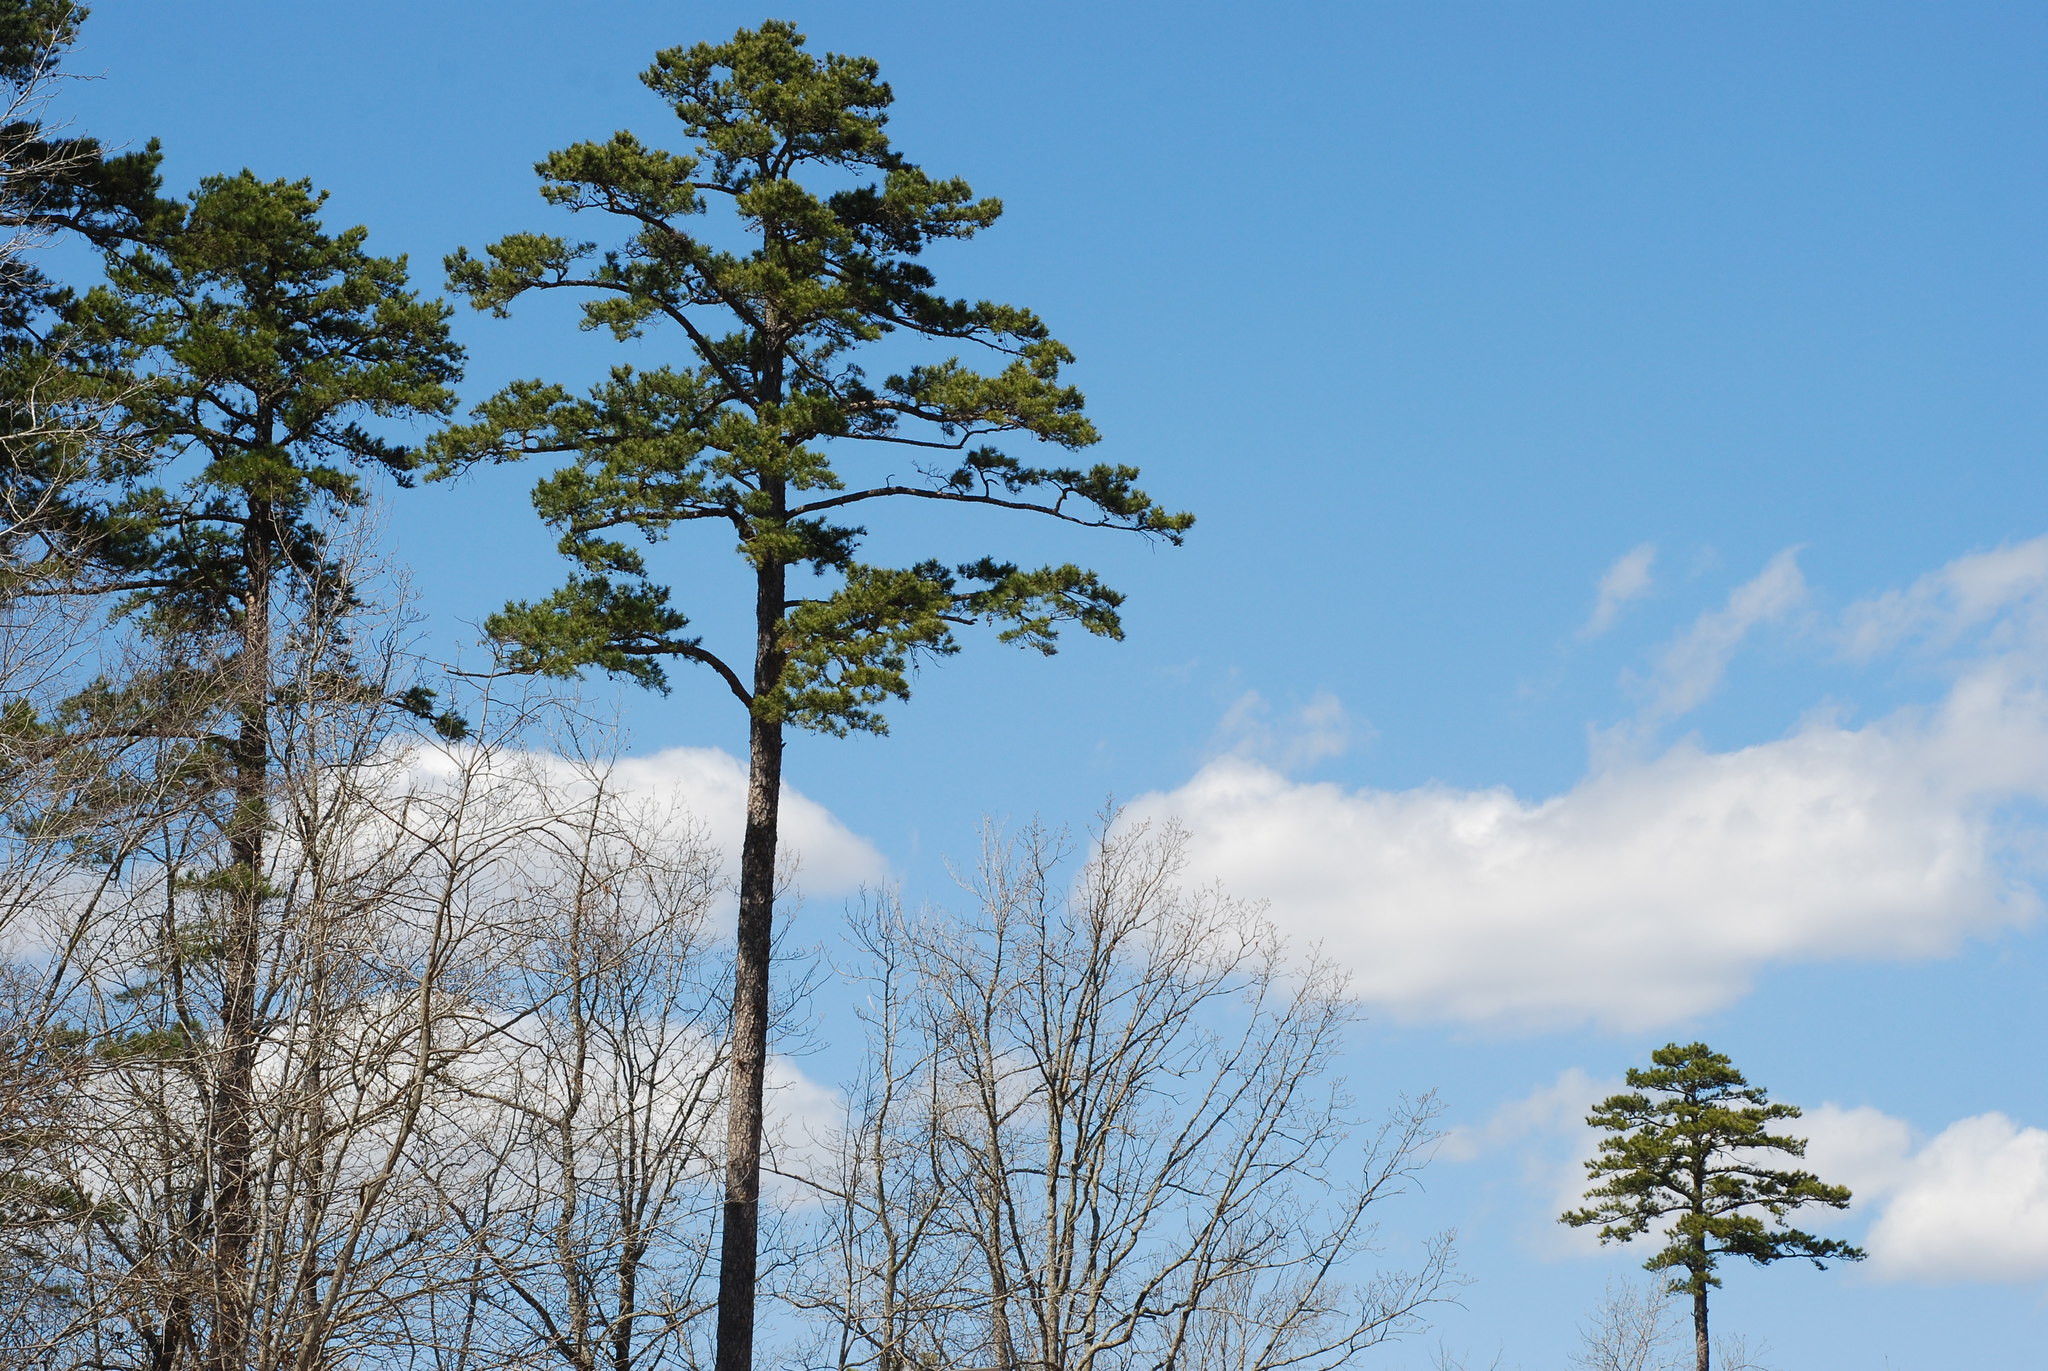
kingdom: Plantae
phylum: Tracheophyta
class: Pinopsida
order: Pinales
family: Pinaceae
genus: Pinus
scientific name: Pinus echinata
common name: Shortleaf pine
